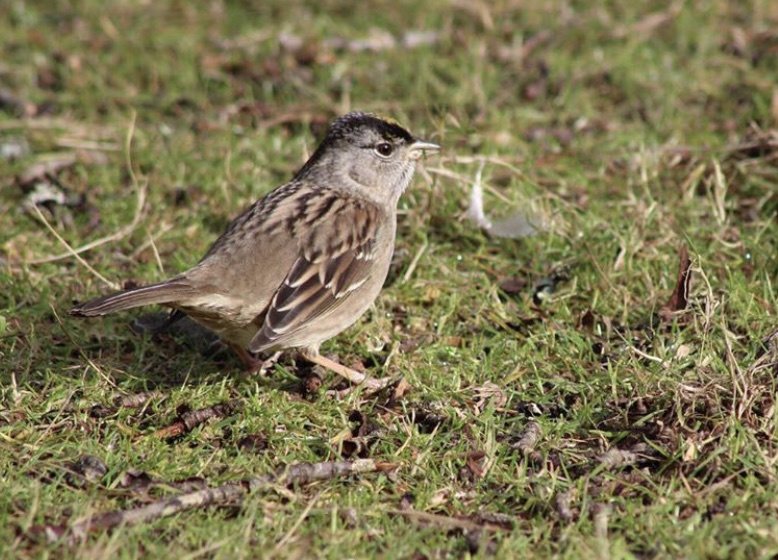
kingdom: Animalia
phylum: Chordata
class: Aves
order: Passeriformes
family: Passerellidae
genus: Zonotrichia
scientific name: Zonotrichia atricapilla
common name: Golden-crowned sparrow
